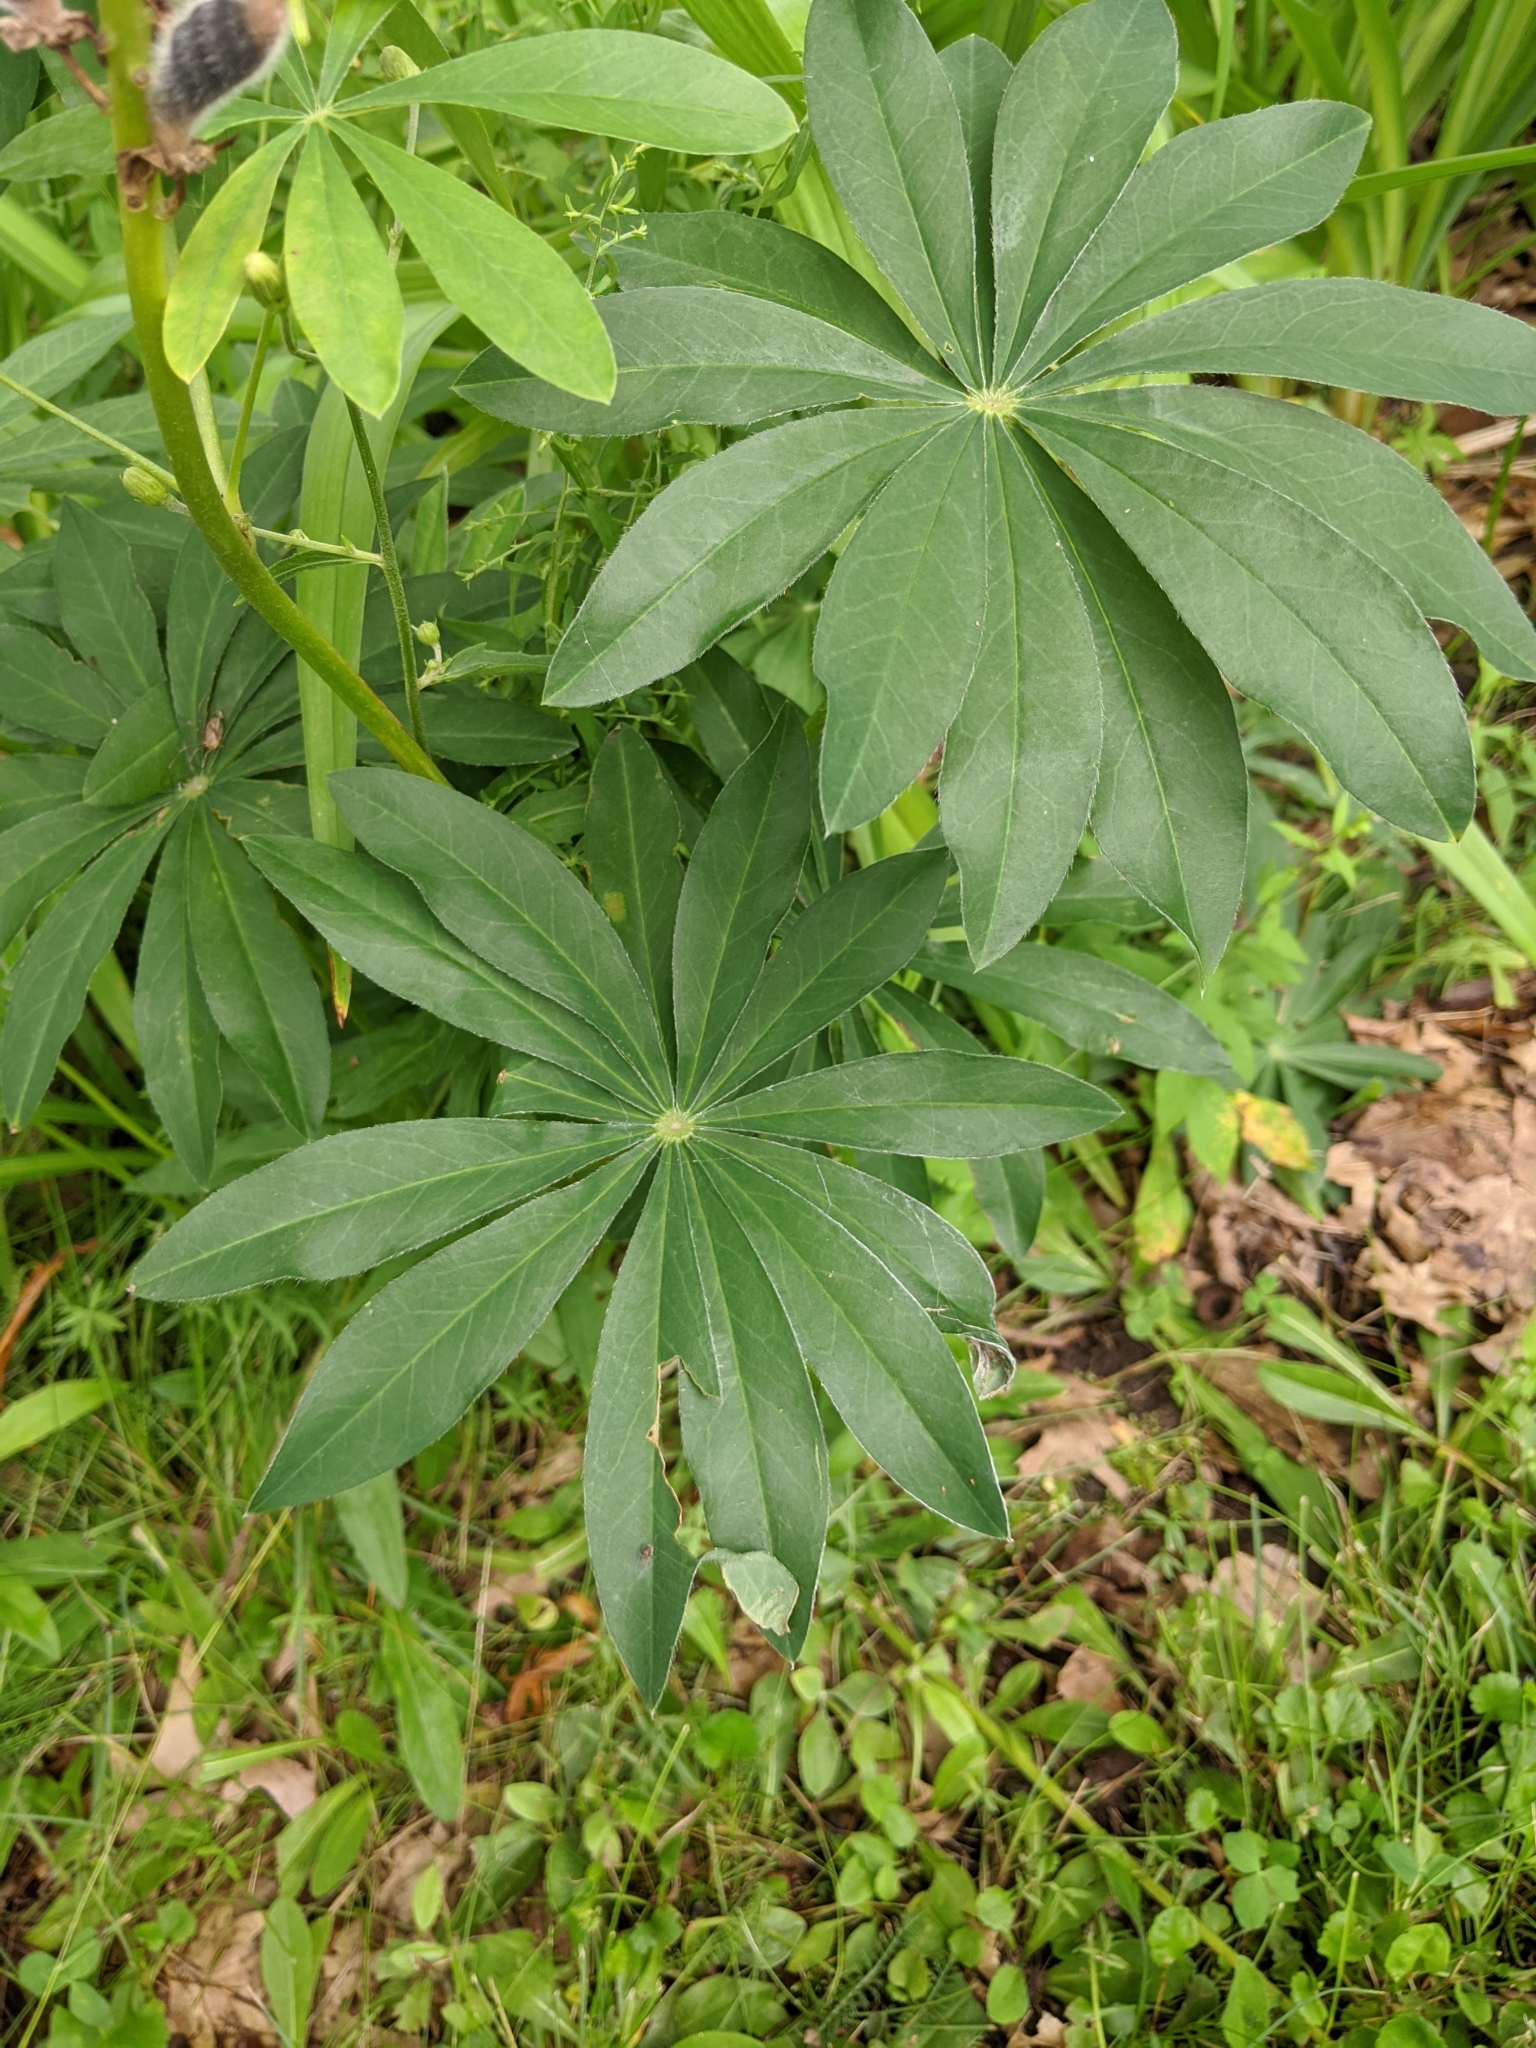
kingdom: Plantae
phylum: Tracheophyta
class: Magnoliopsida
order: Fabales
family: Fabaceae
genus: Lupinus
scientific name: Lupinus polyphyllus
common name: Garden lupin
